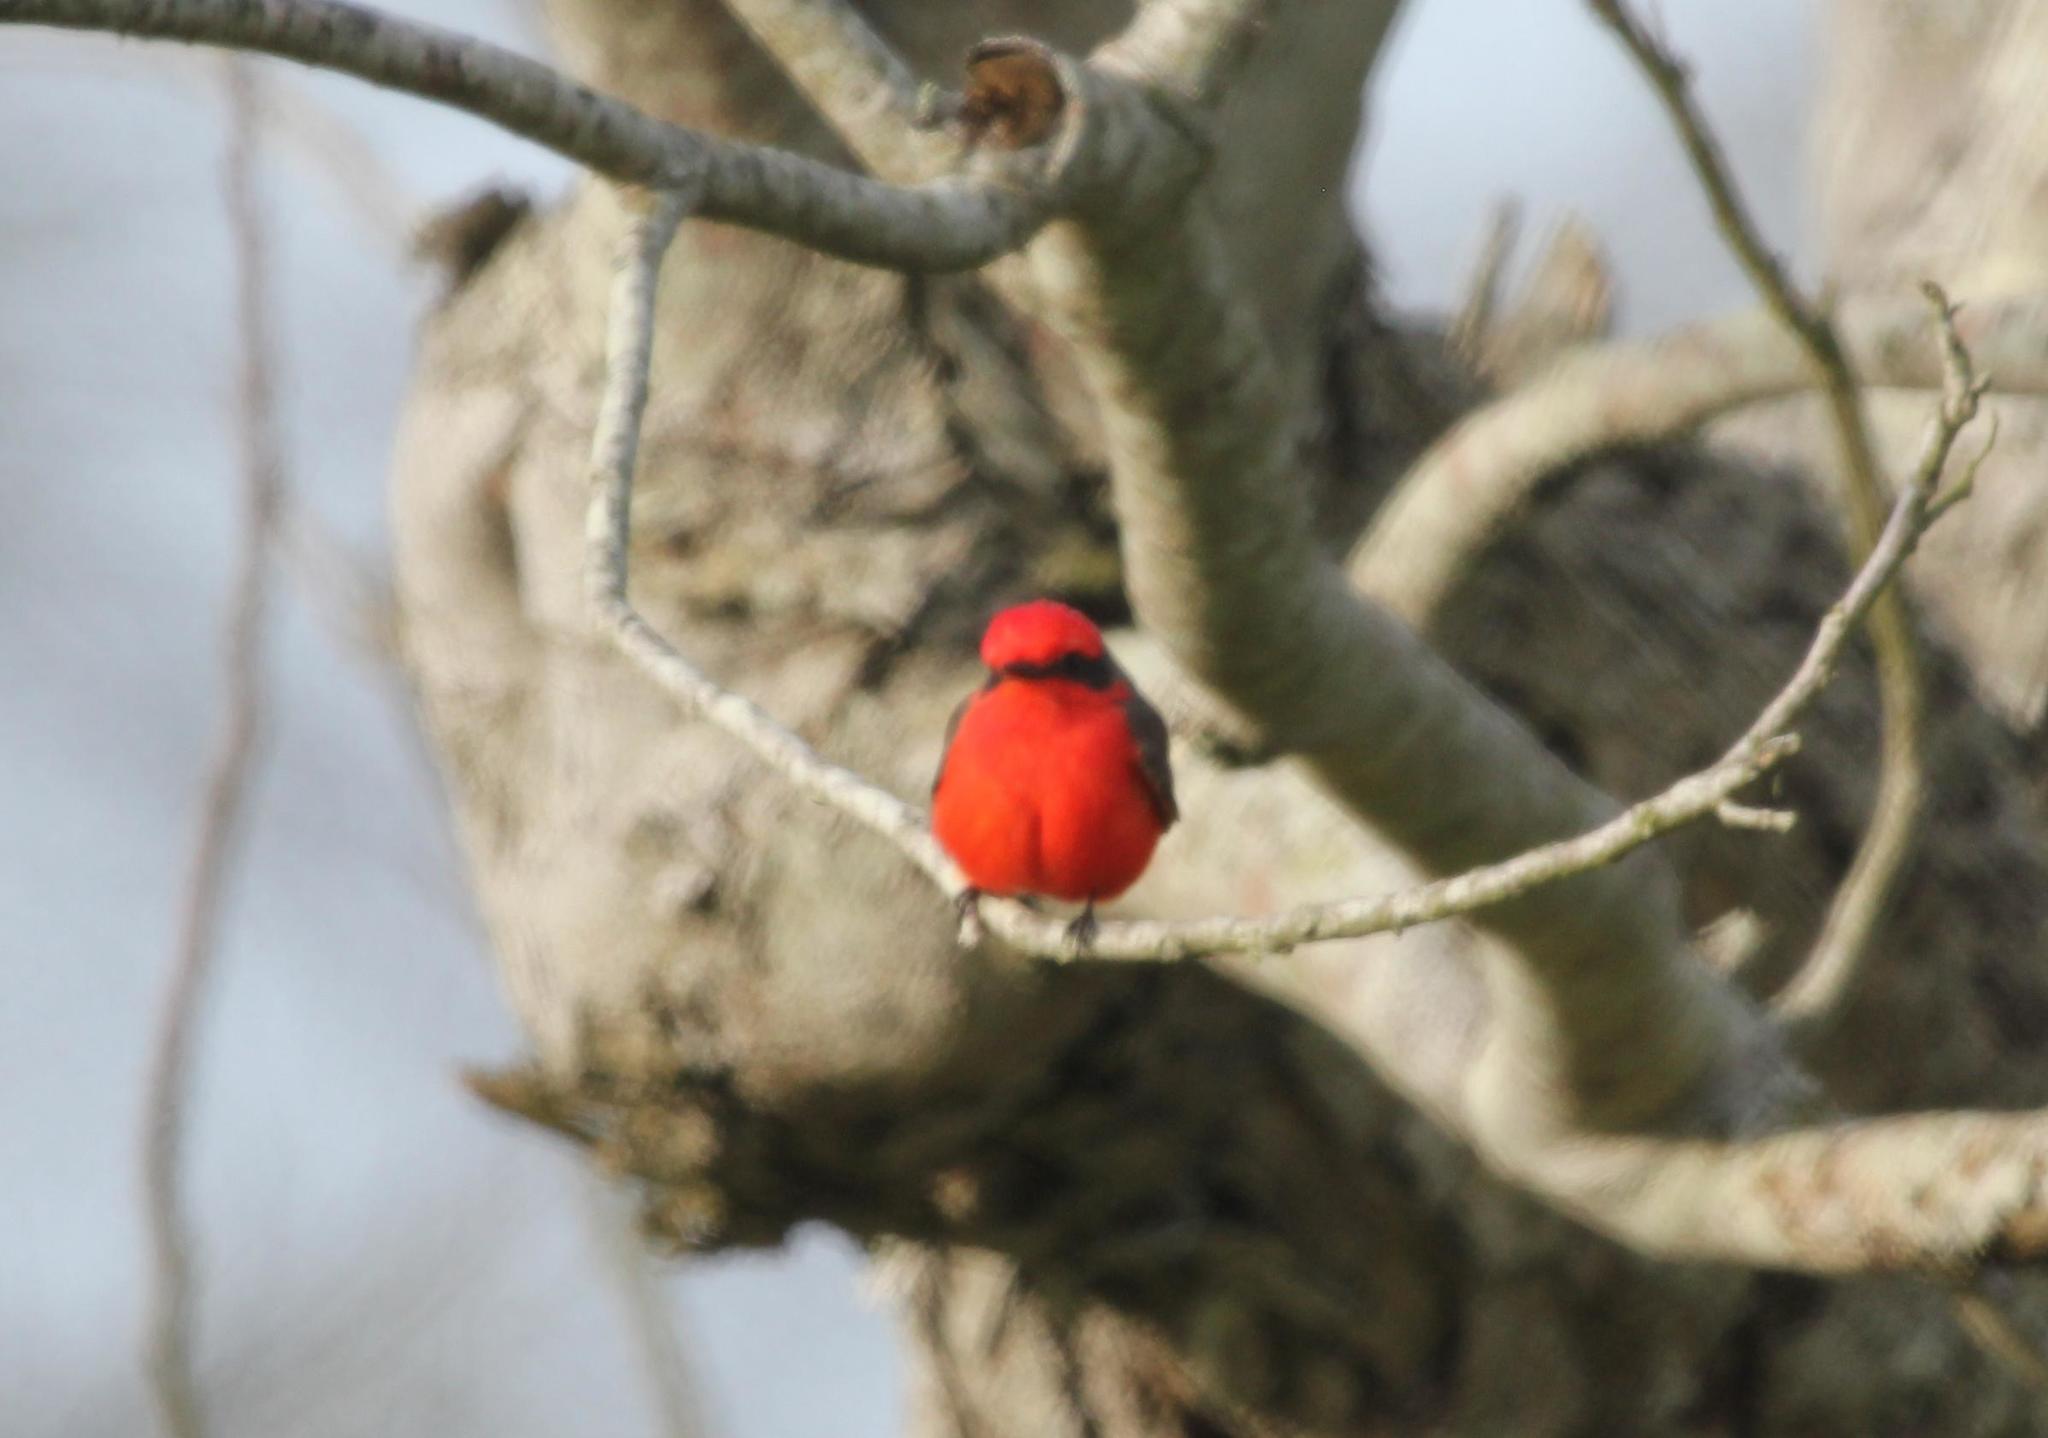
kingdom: Animalia
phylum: Chordata
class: Aves
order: Passeriformes
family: Tyrannidae
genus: Pyrocephalus
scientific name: Pyrocephalus rubinus
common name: Vermilion flycatcher
